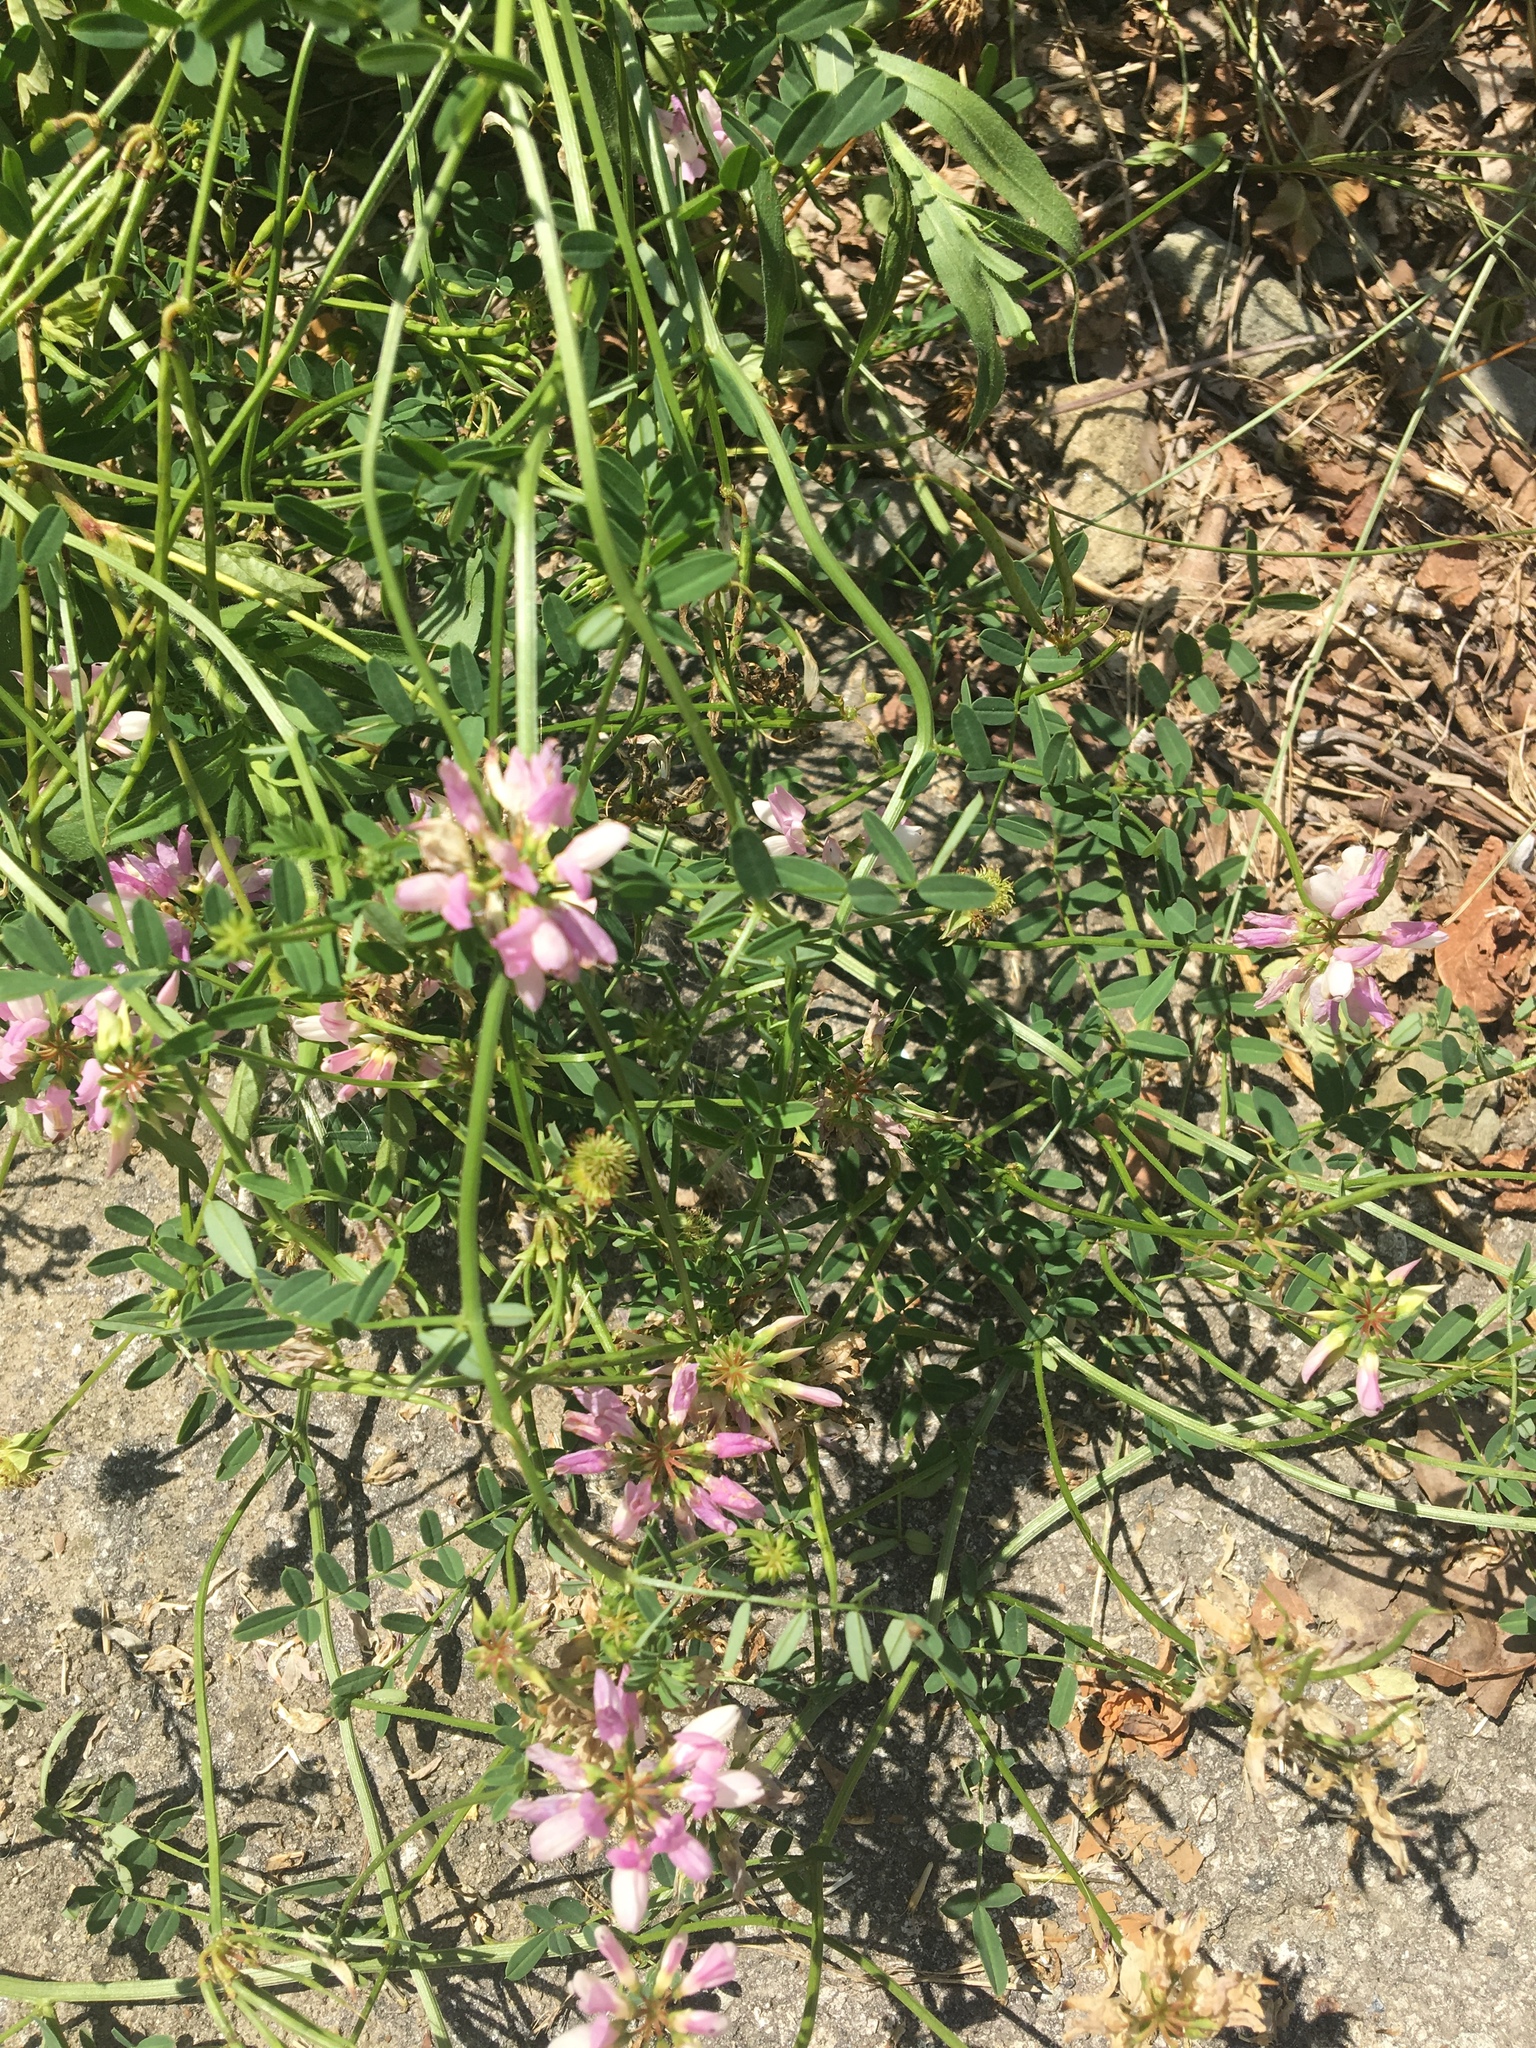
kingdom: Plantae
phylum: Tracheophyta
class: Magnoliopsida
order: Fabales
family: Fabaceae
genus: Coronilla
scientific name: Coronilla varia
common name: Crownvetch
